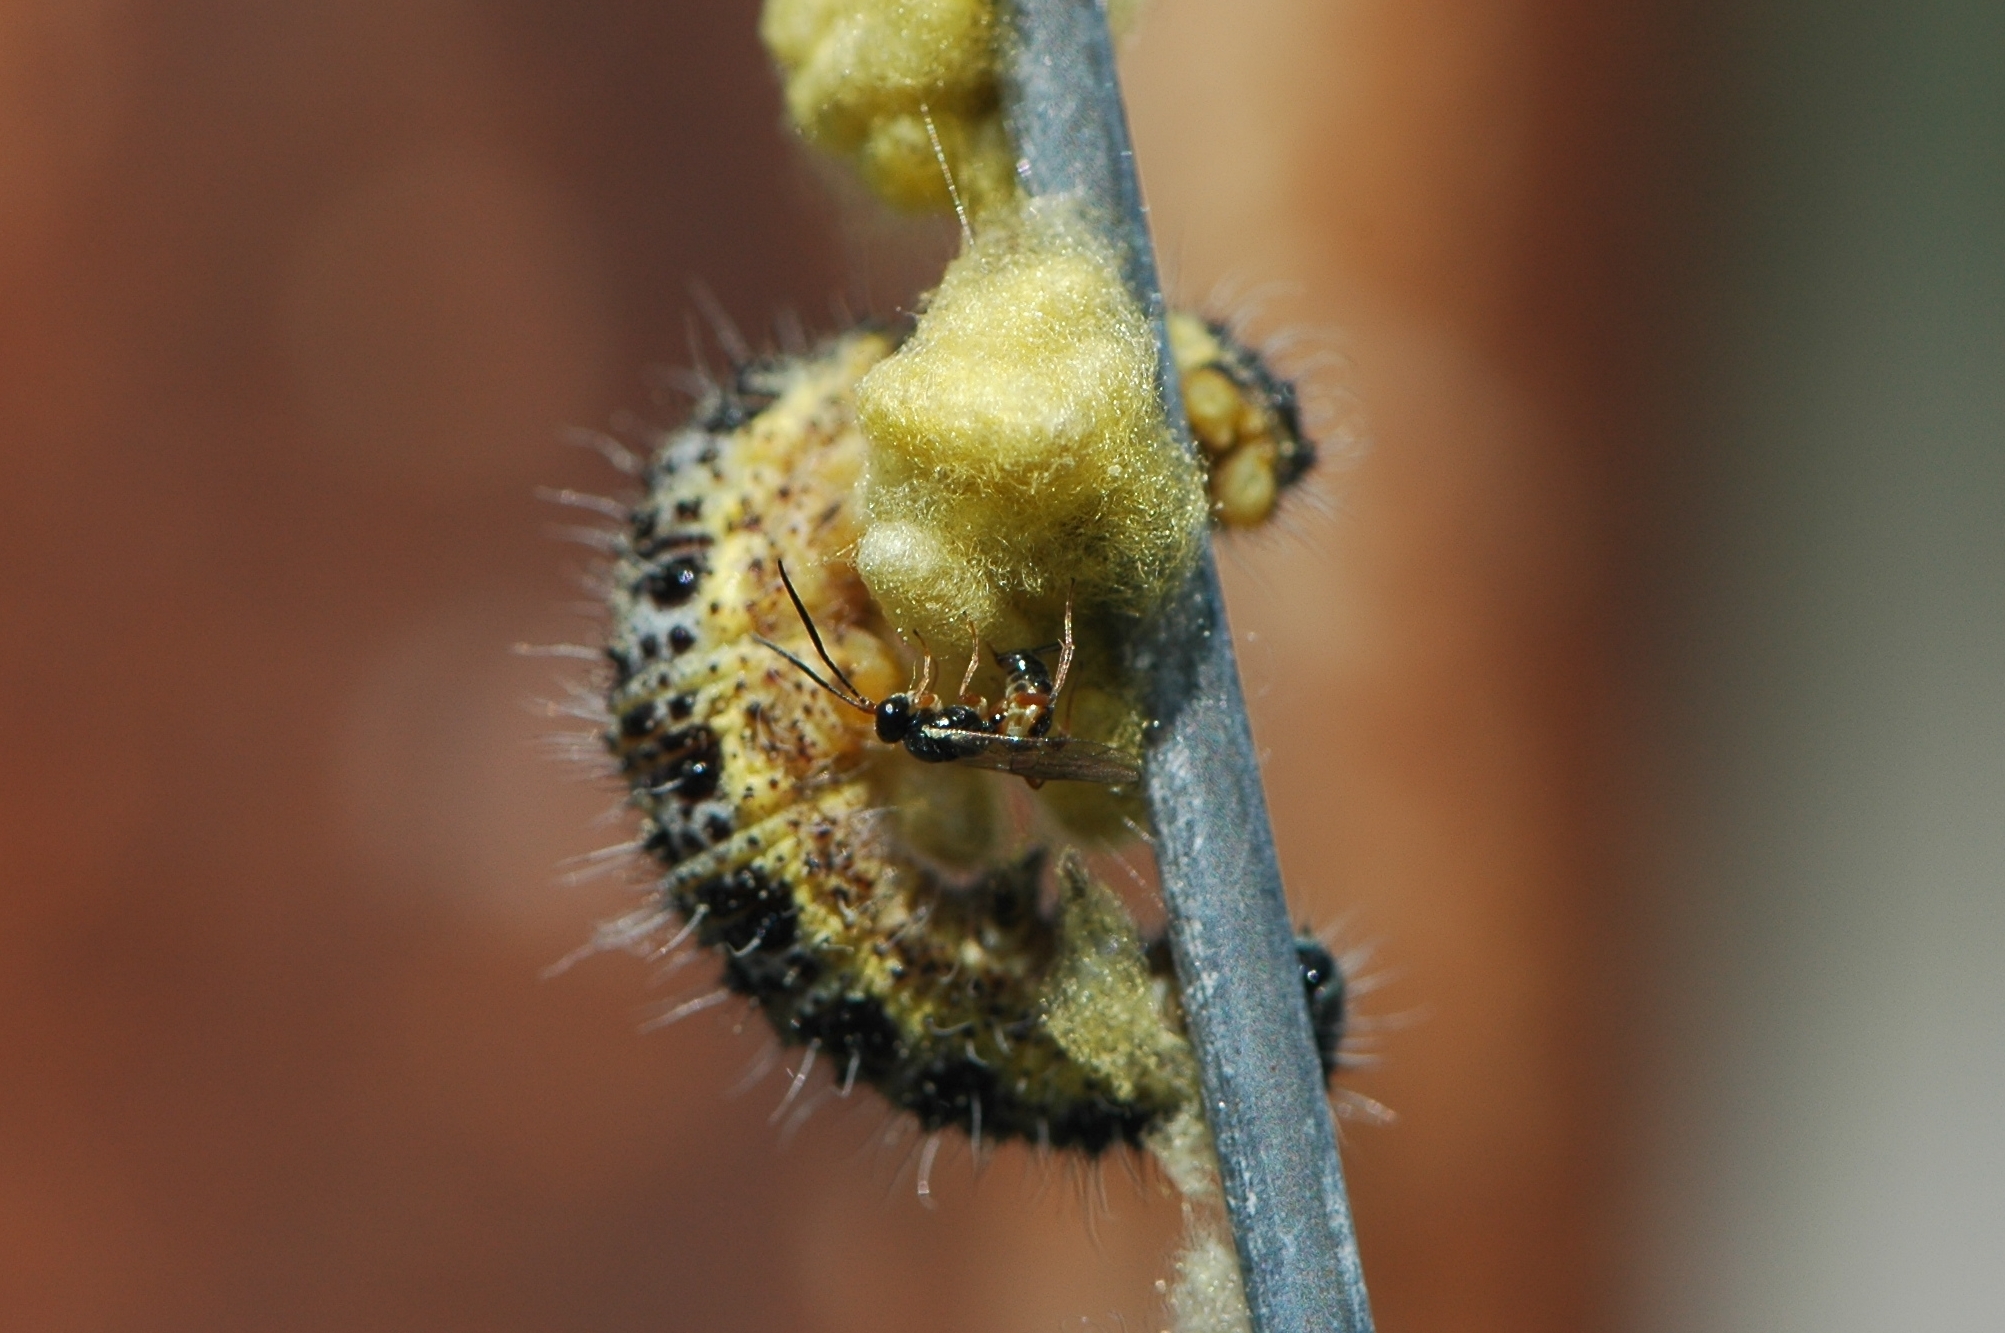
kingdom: Animalia
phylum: Arthropoda
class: Insecta
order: Hymenoptera
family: Ichneumonidae
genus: Lysibia
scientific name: Lysibia nana
